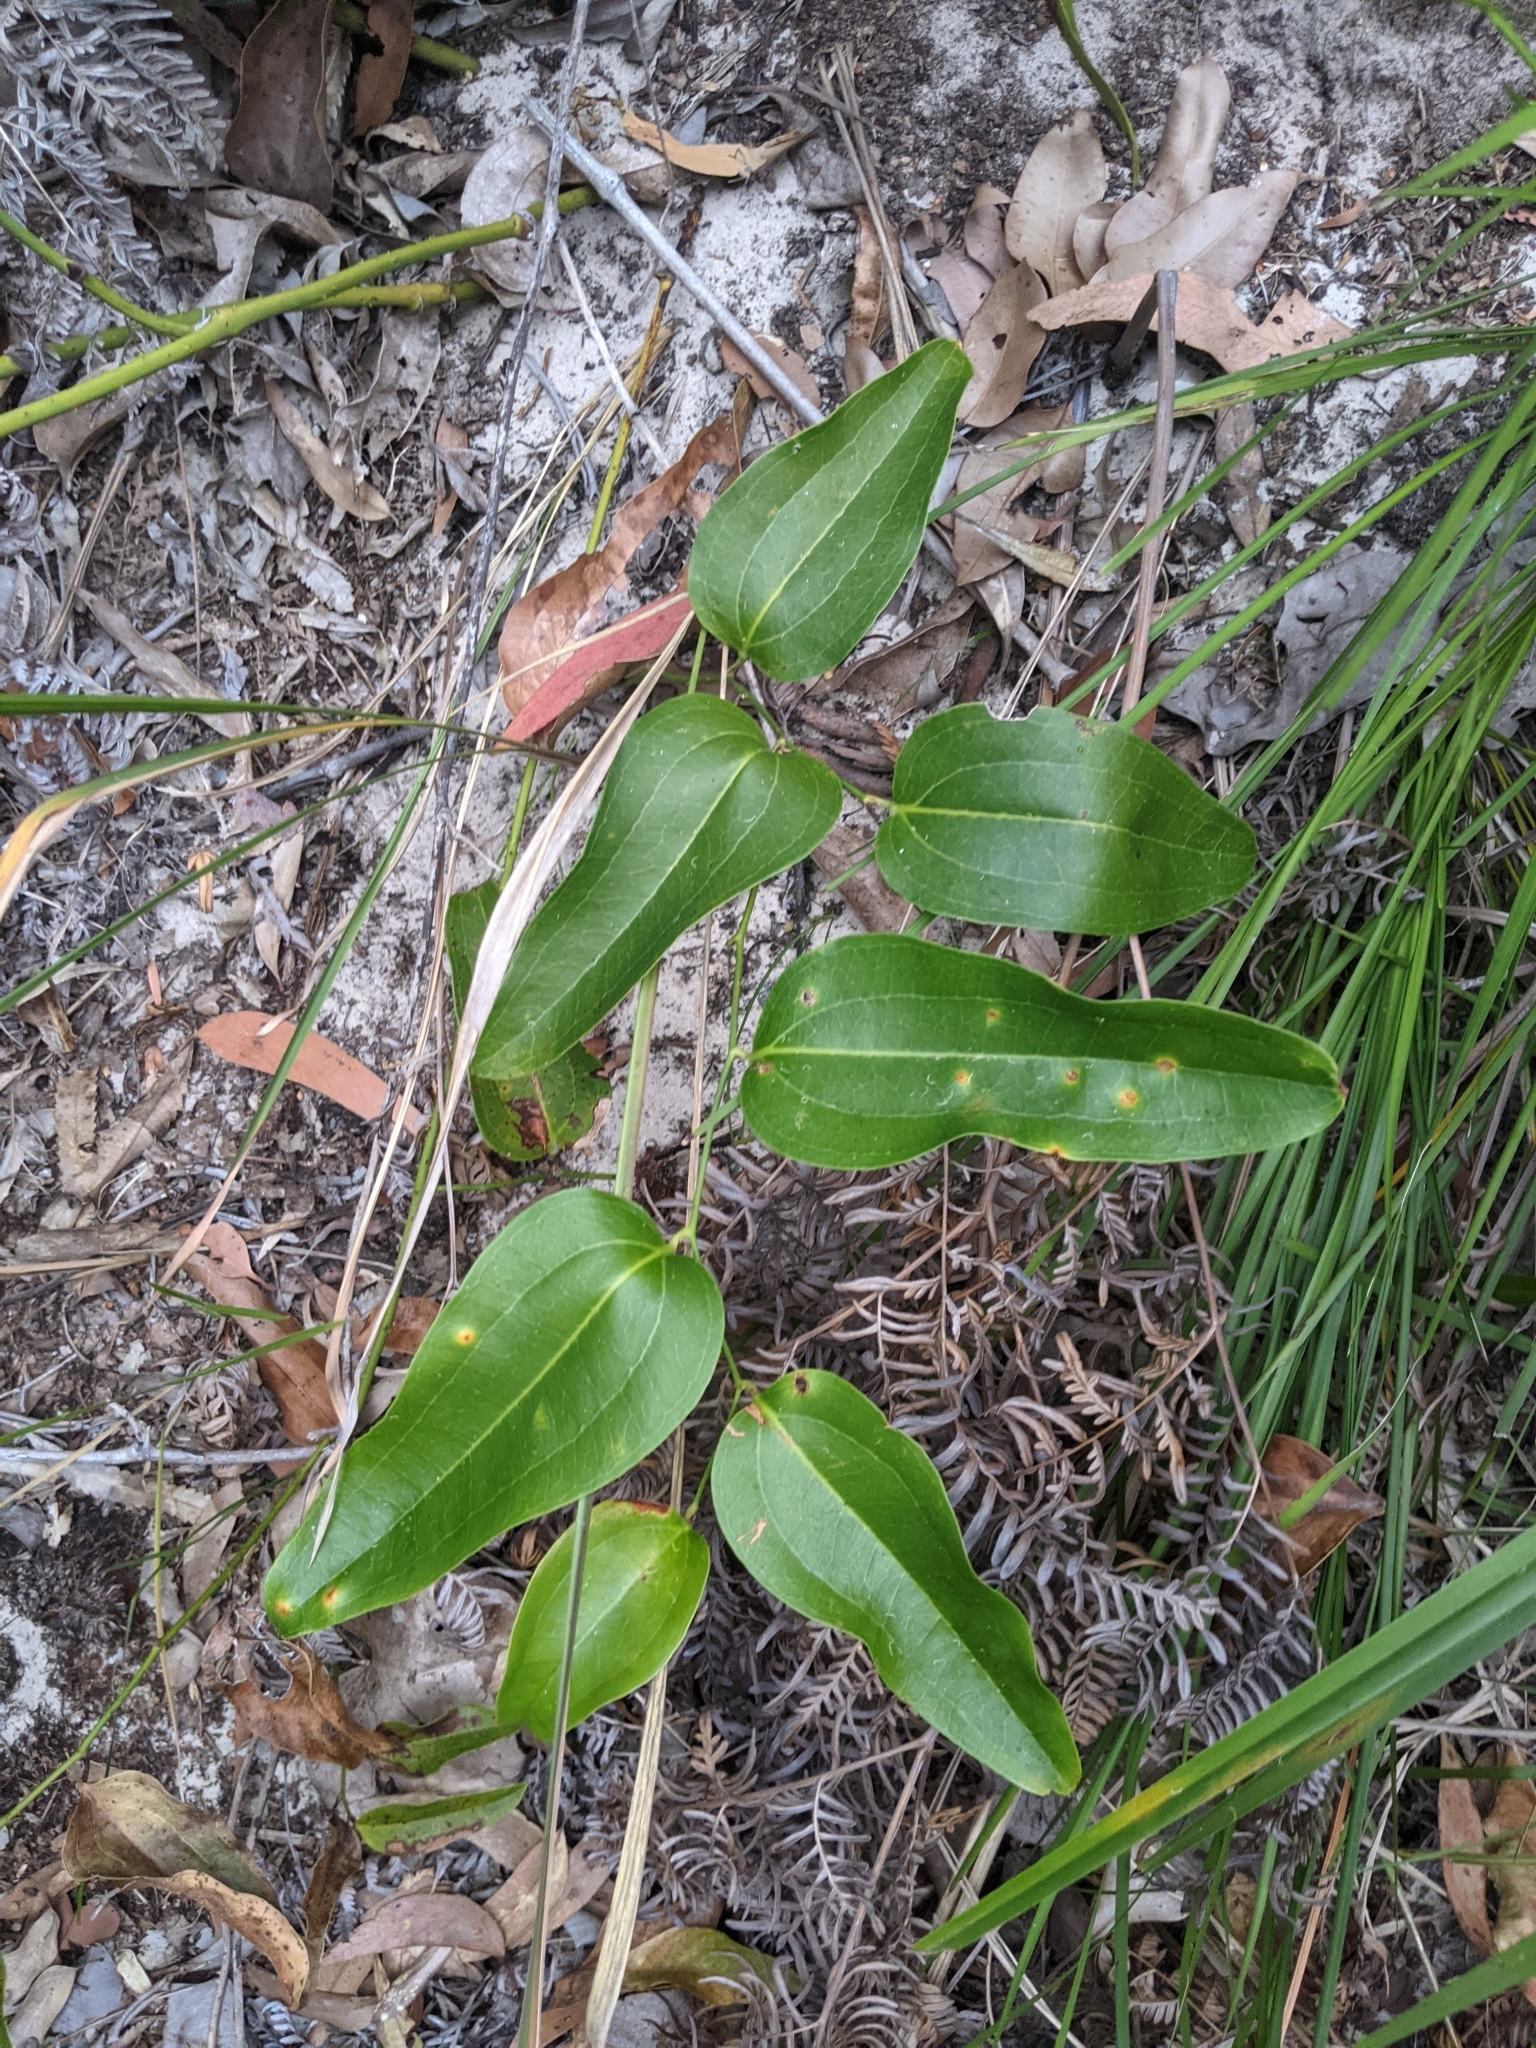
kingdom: Plantae
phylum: Tracheophyta
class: Liliopsida
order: Liliales
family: Smilacaceae
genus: Smilax
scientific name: Smilax australis
